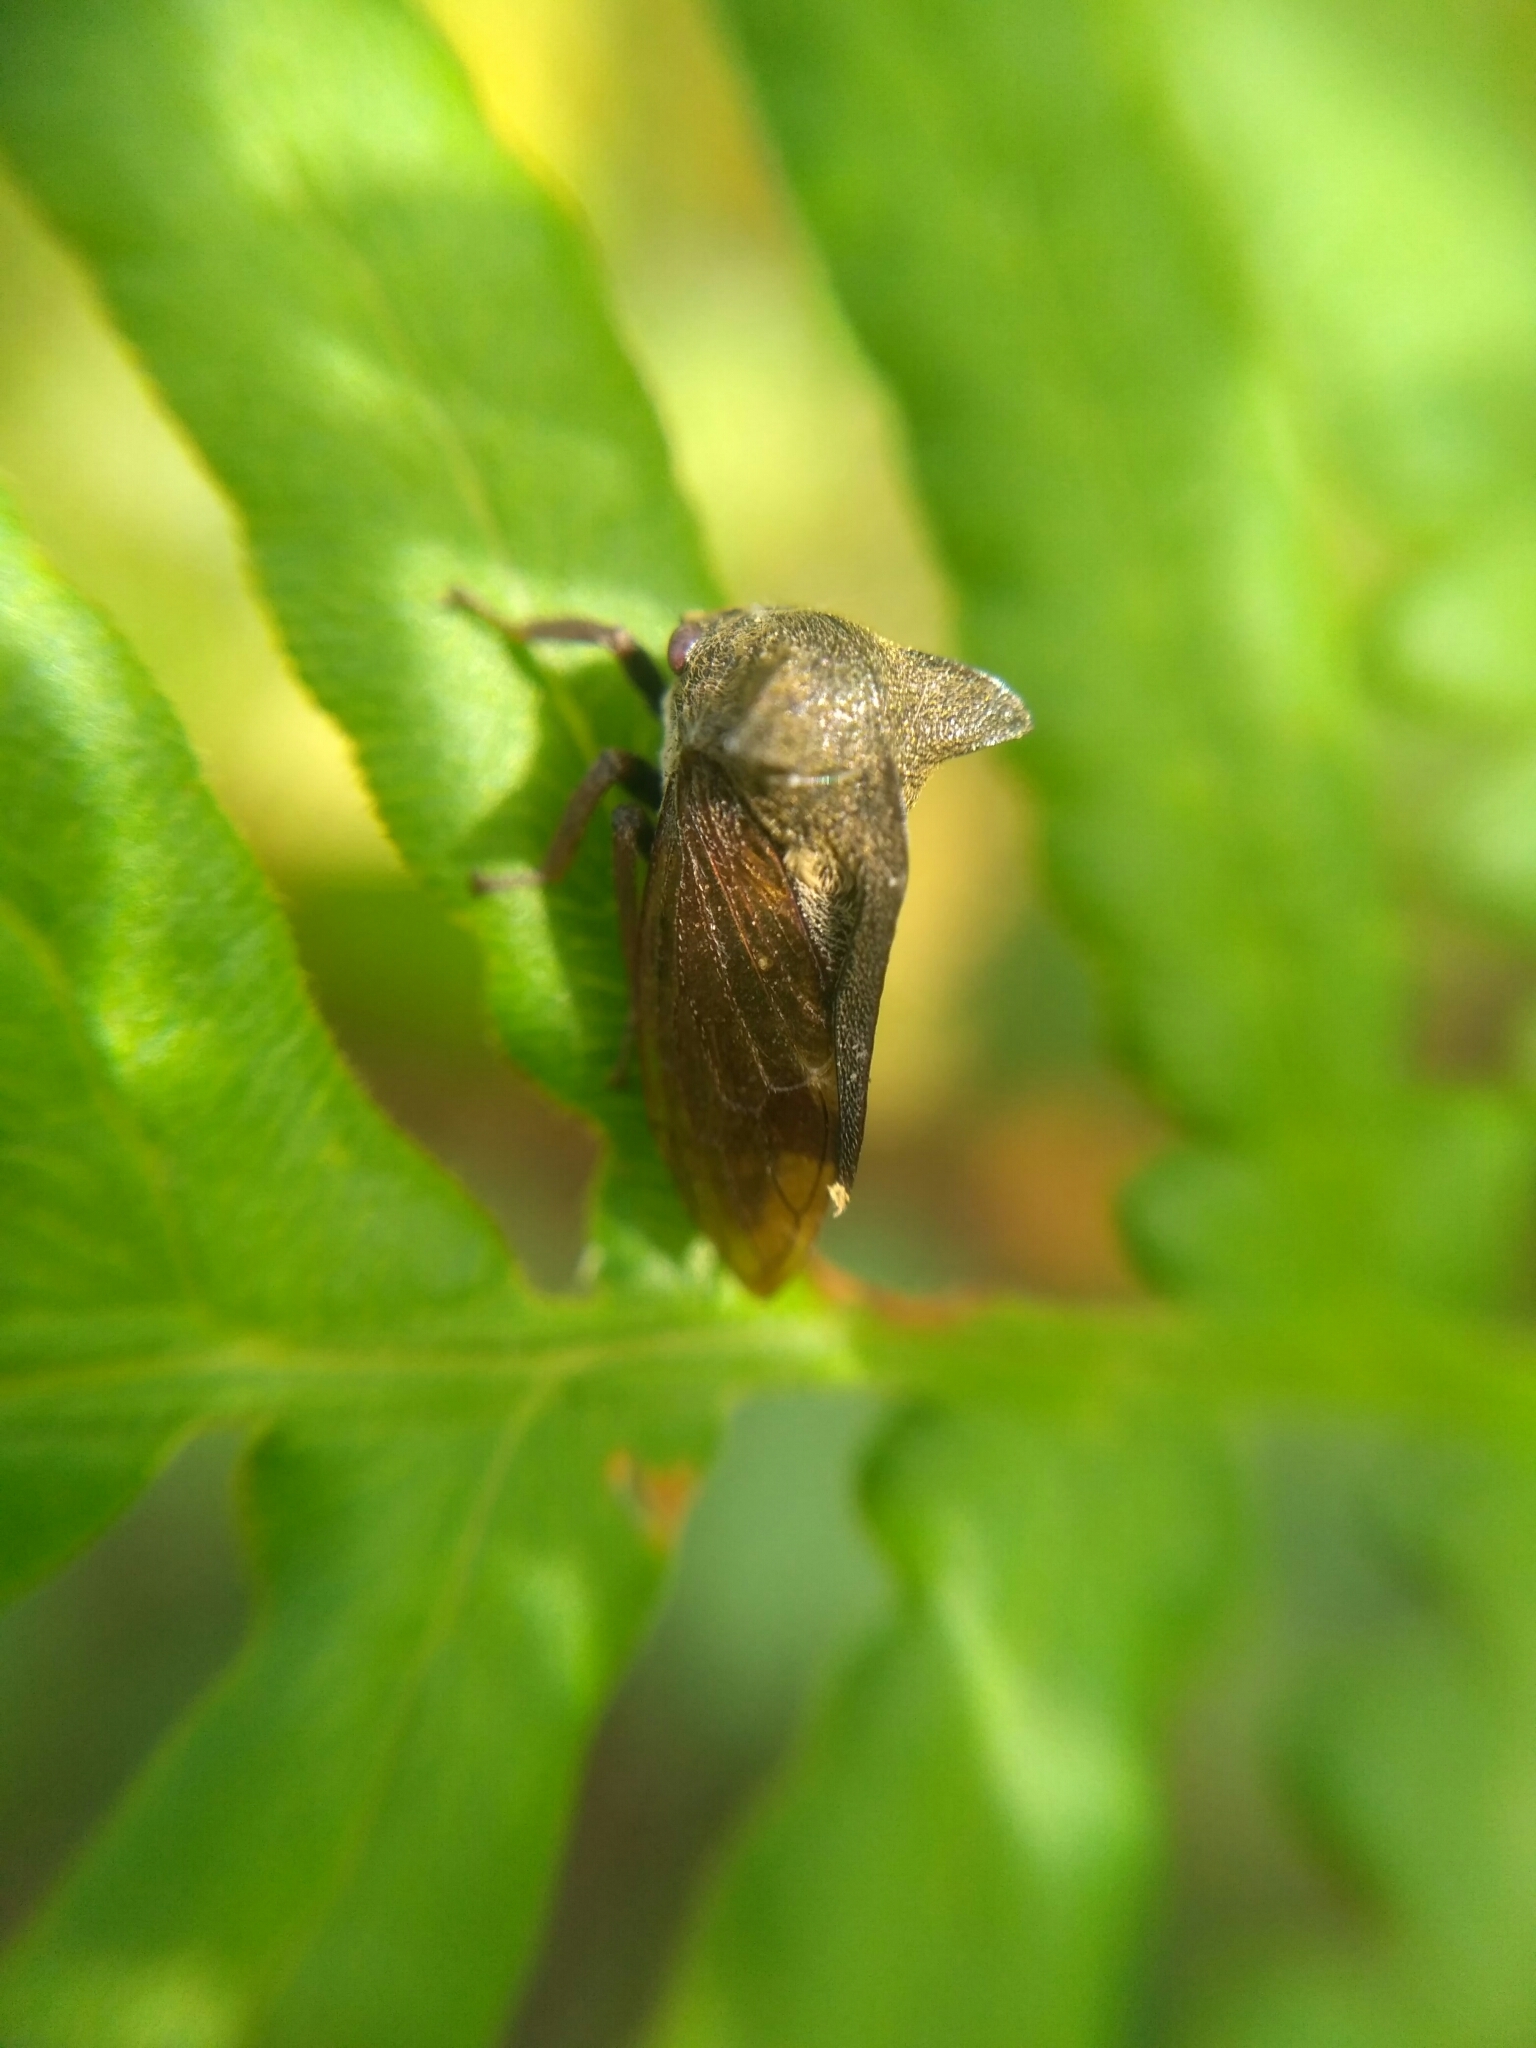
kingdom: Animalia
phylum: Arthropoda
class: Insecta
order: Hemiptera
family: Membracidae
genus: Centrotus
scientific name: Centrotus cornuta
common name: Treehopper
